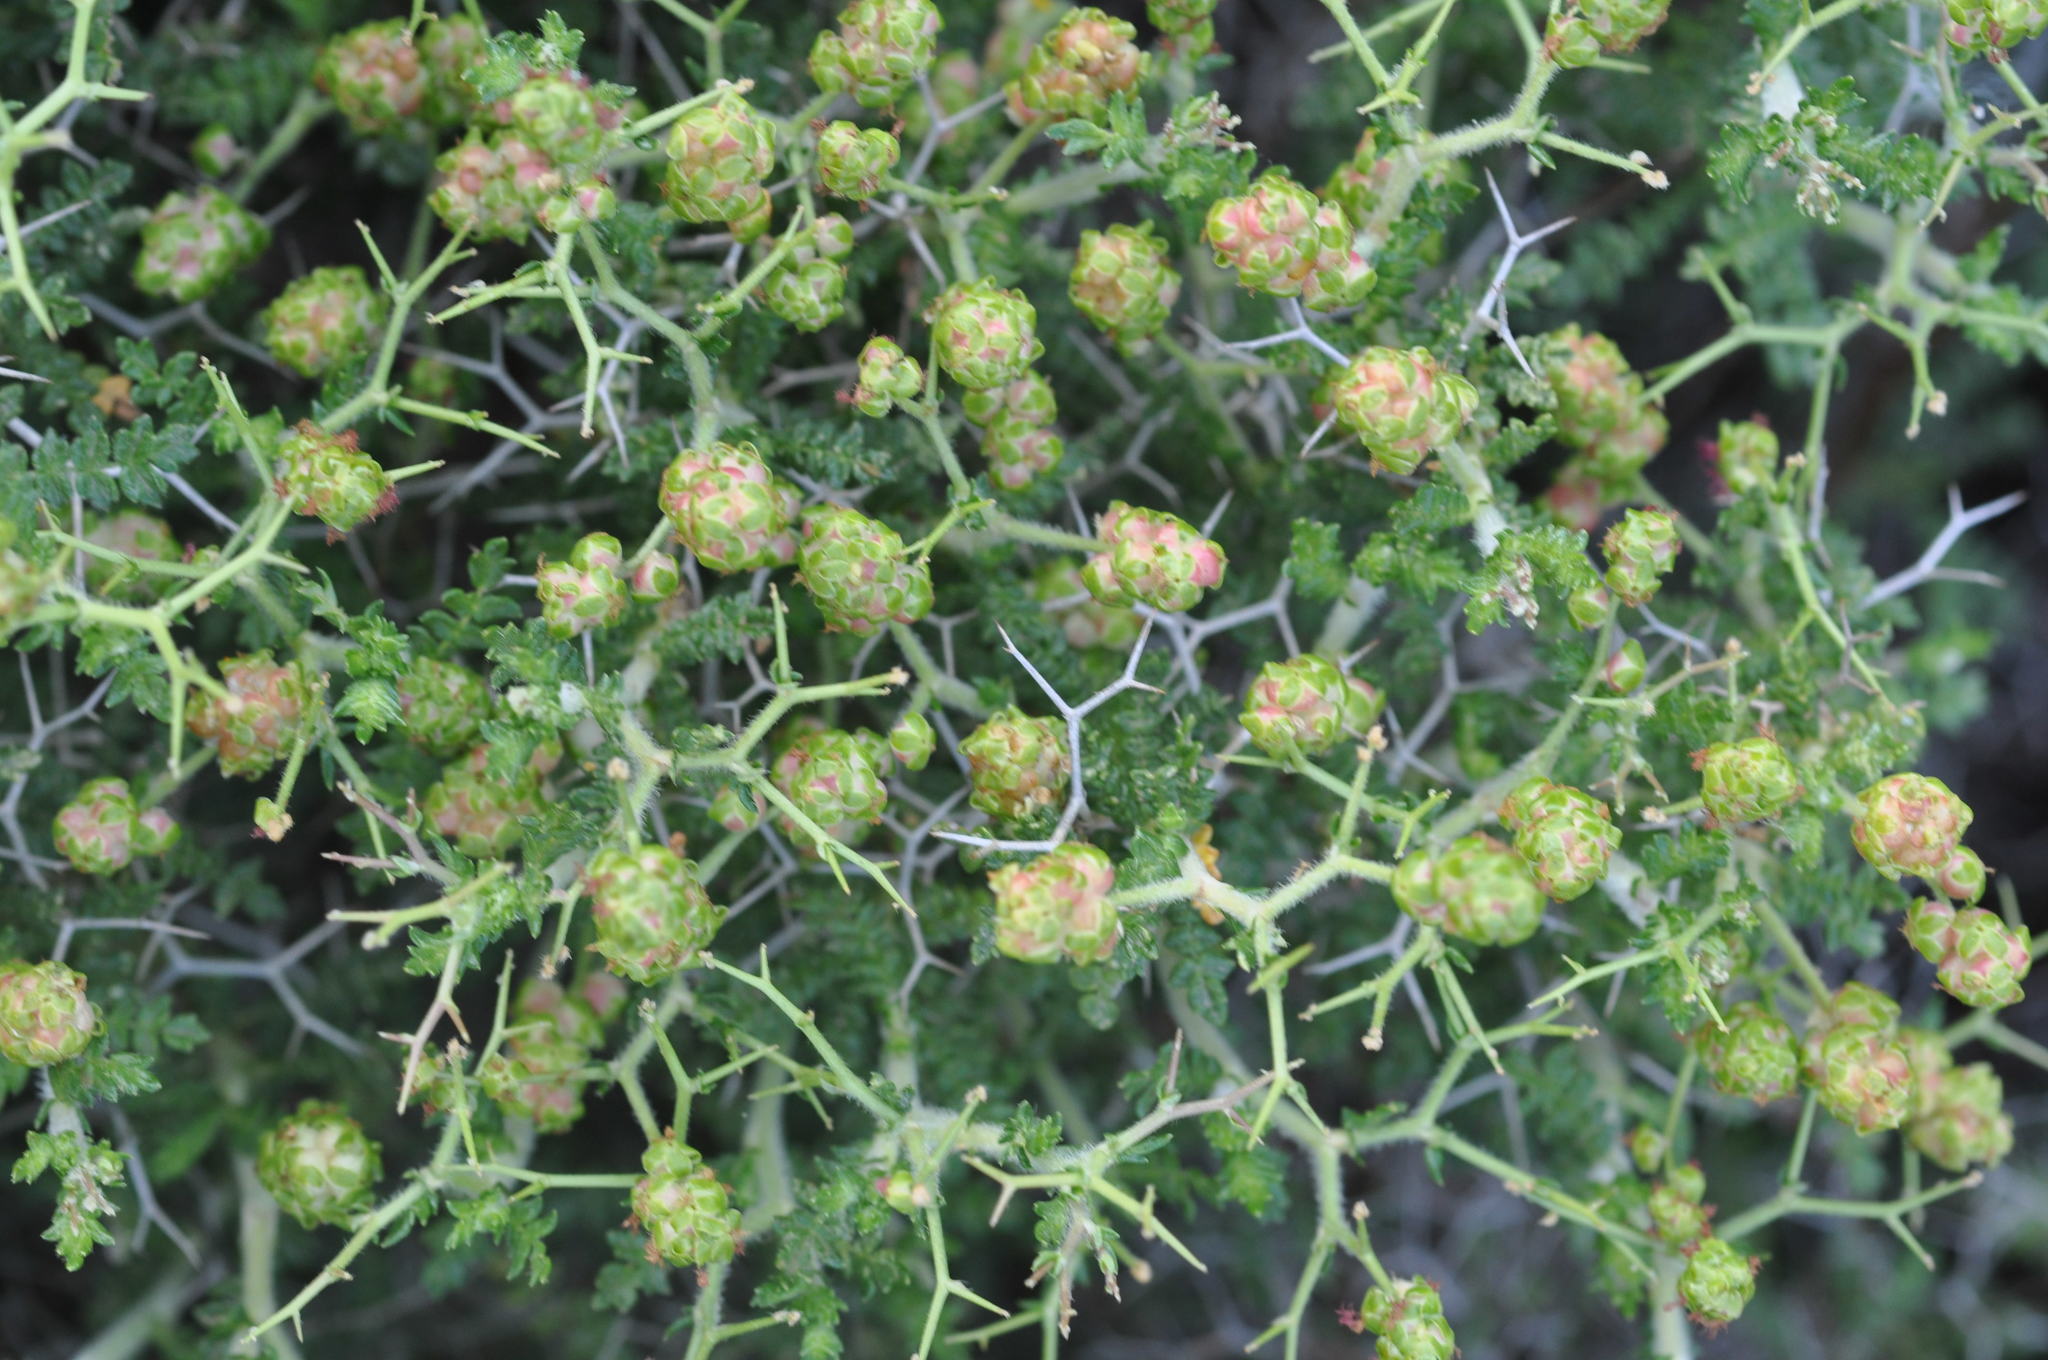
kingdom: Plantae
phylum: Tracheophyta
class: Magnoliopsida
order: Rosales
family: Rosaceae
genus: Sarcopoterium
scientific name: Sarcopoterium spinosum
